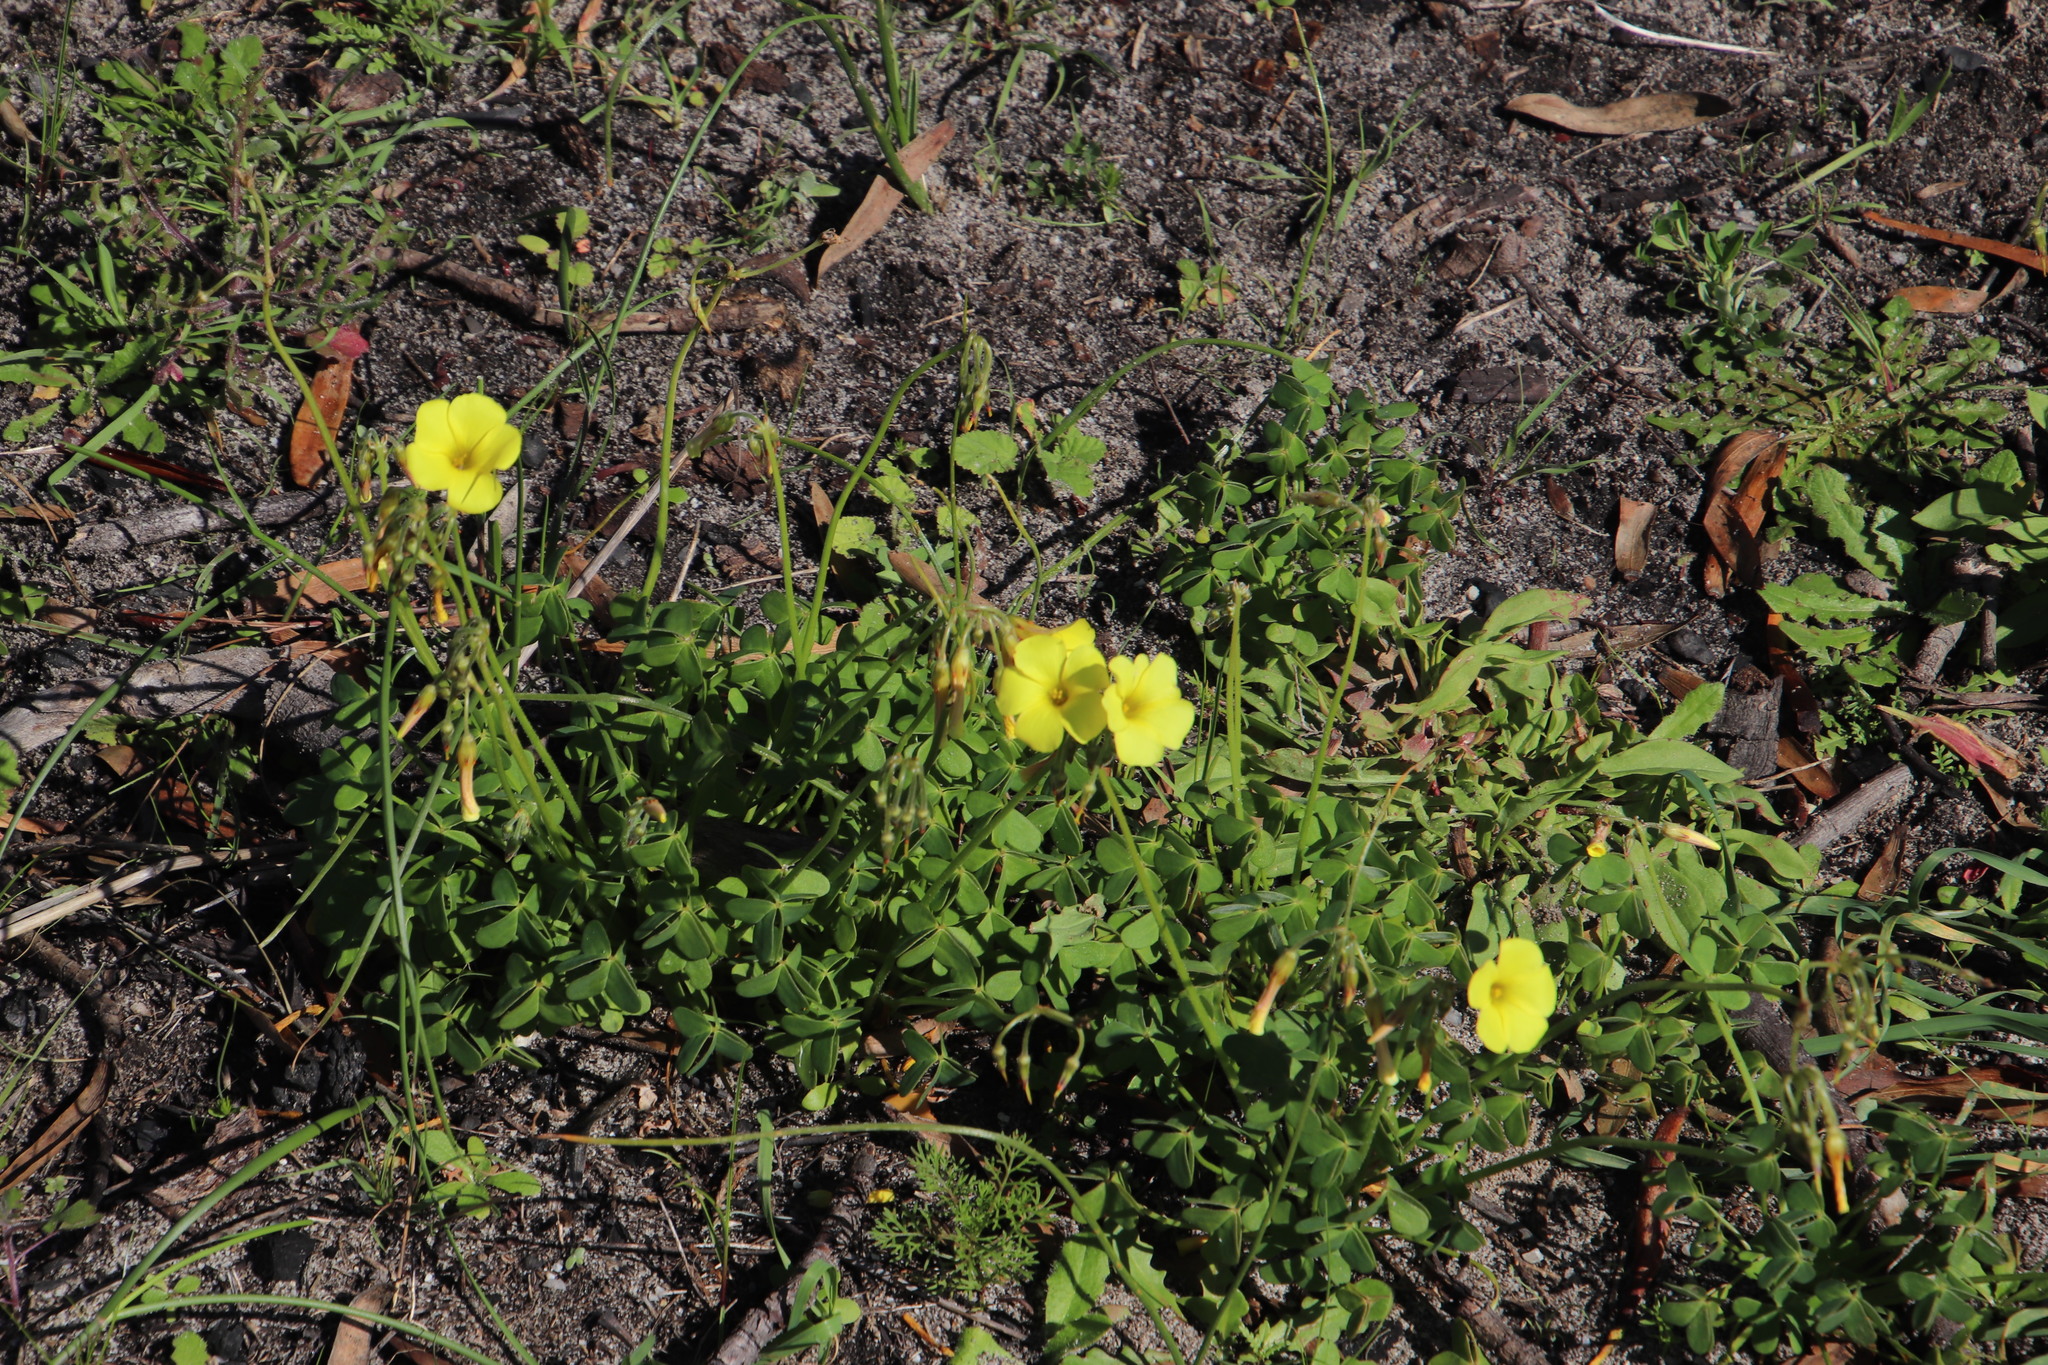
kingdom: Plantae
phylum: Tracheophyta
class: Magnoliopsida
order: Oxalidales
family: Oxalidaceae
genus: Oxalis
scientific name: Oxalis pes-caprae
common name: Bermuda-buttercup
